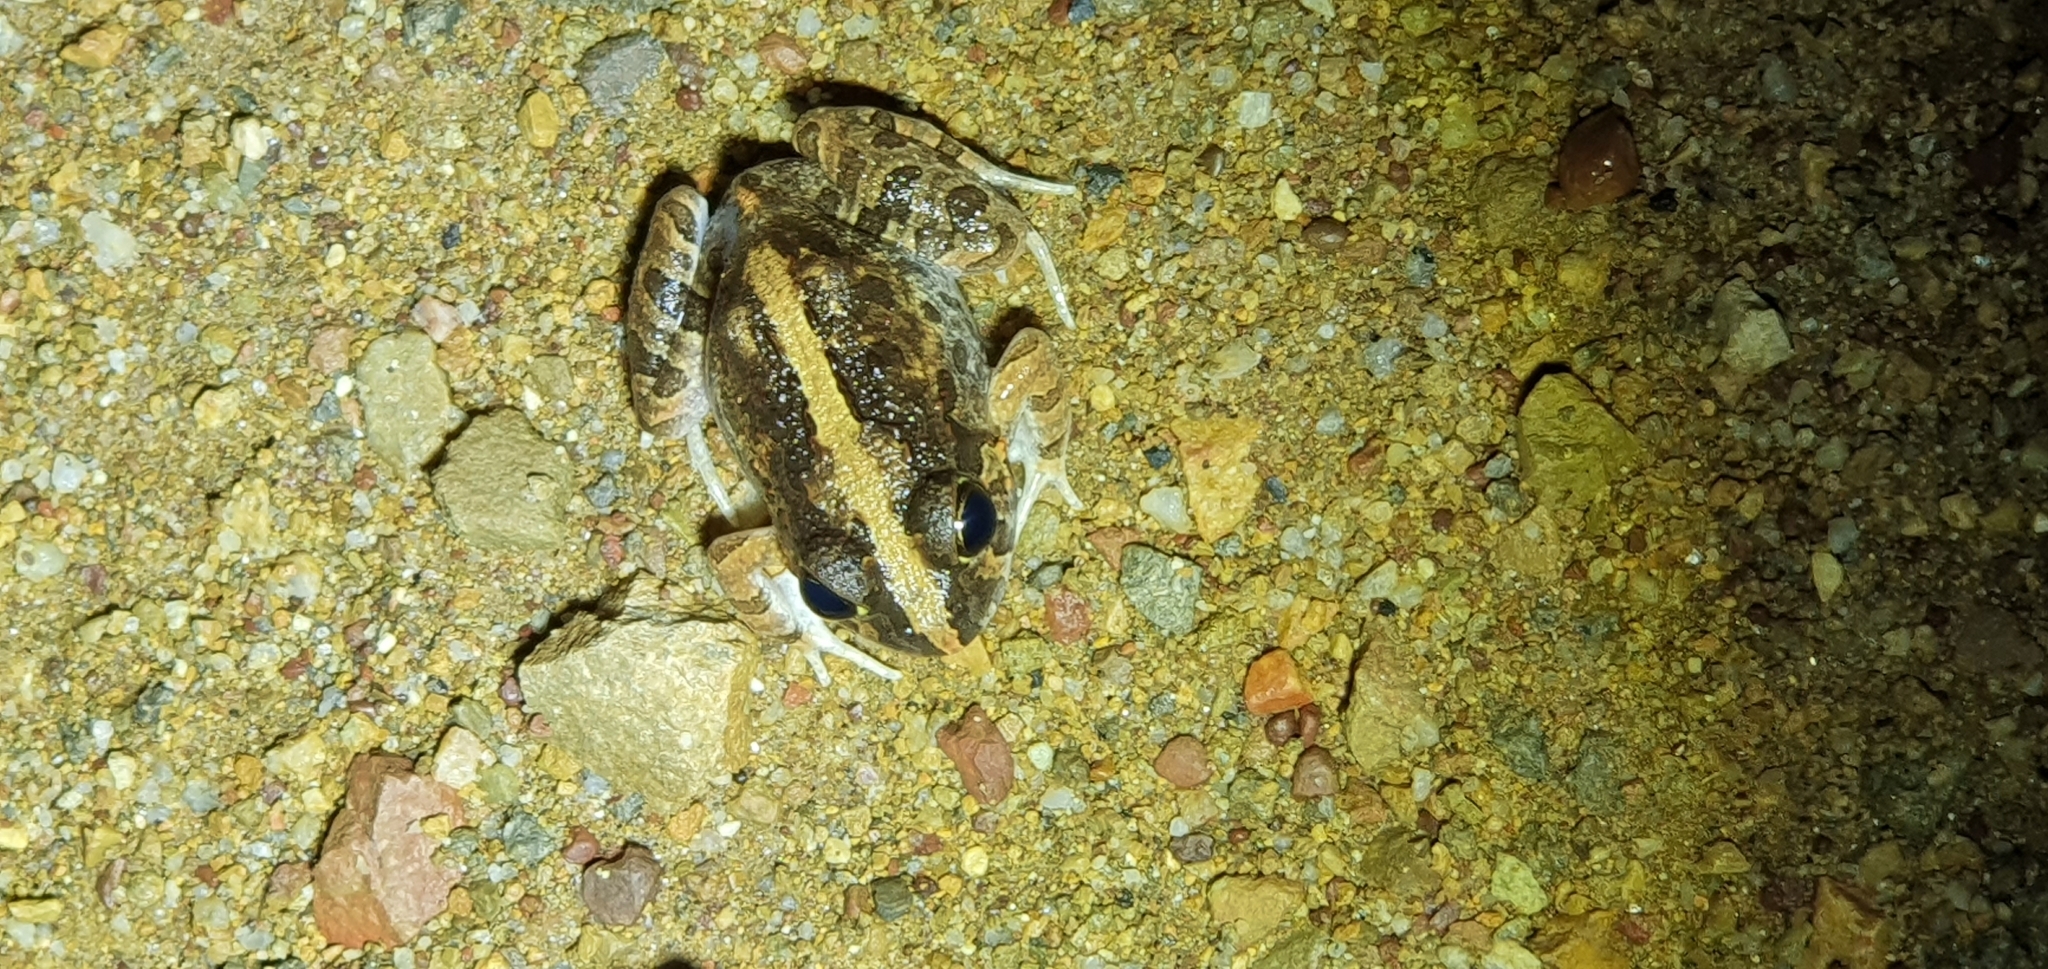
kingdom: Animalia
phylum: Chordata
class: Amphibia
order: Anura
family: Limnodynastidae
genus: Platyplectrum
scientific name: Platyplectrum ornatum
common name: Ornate burrowing frog
